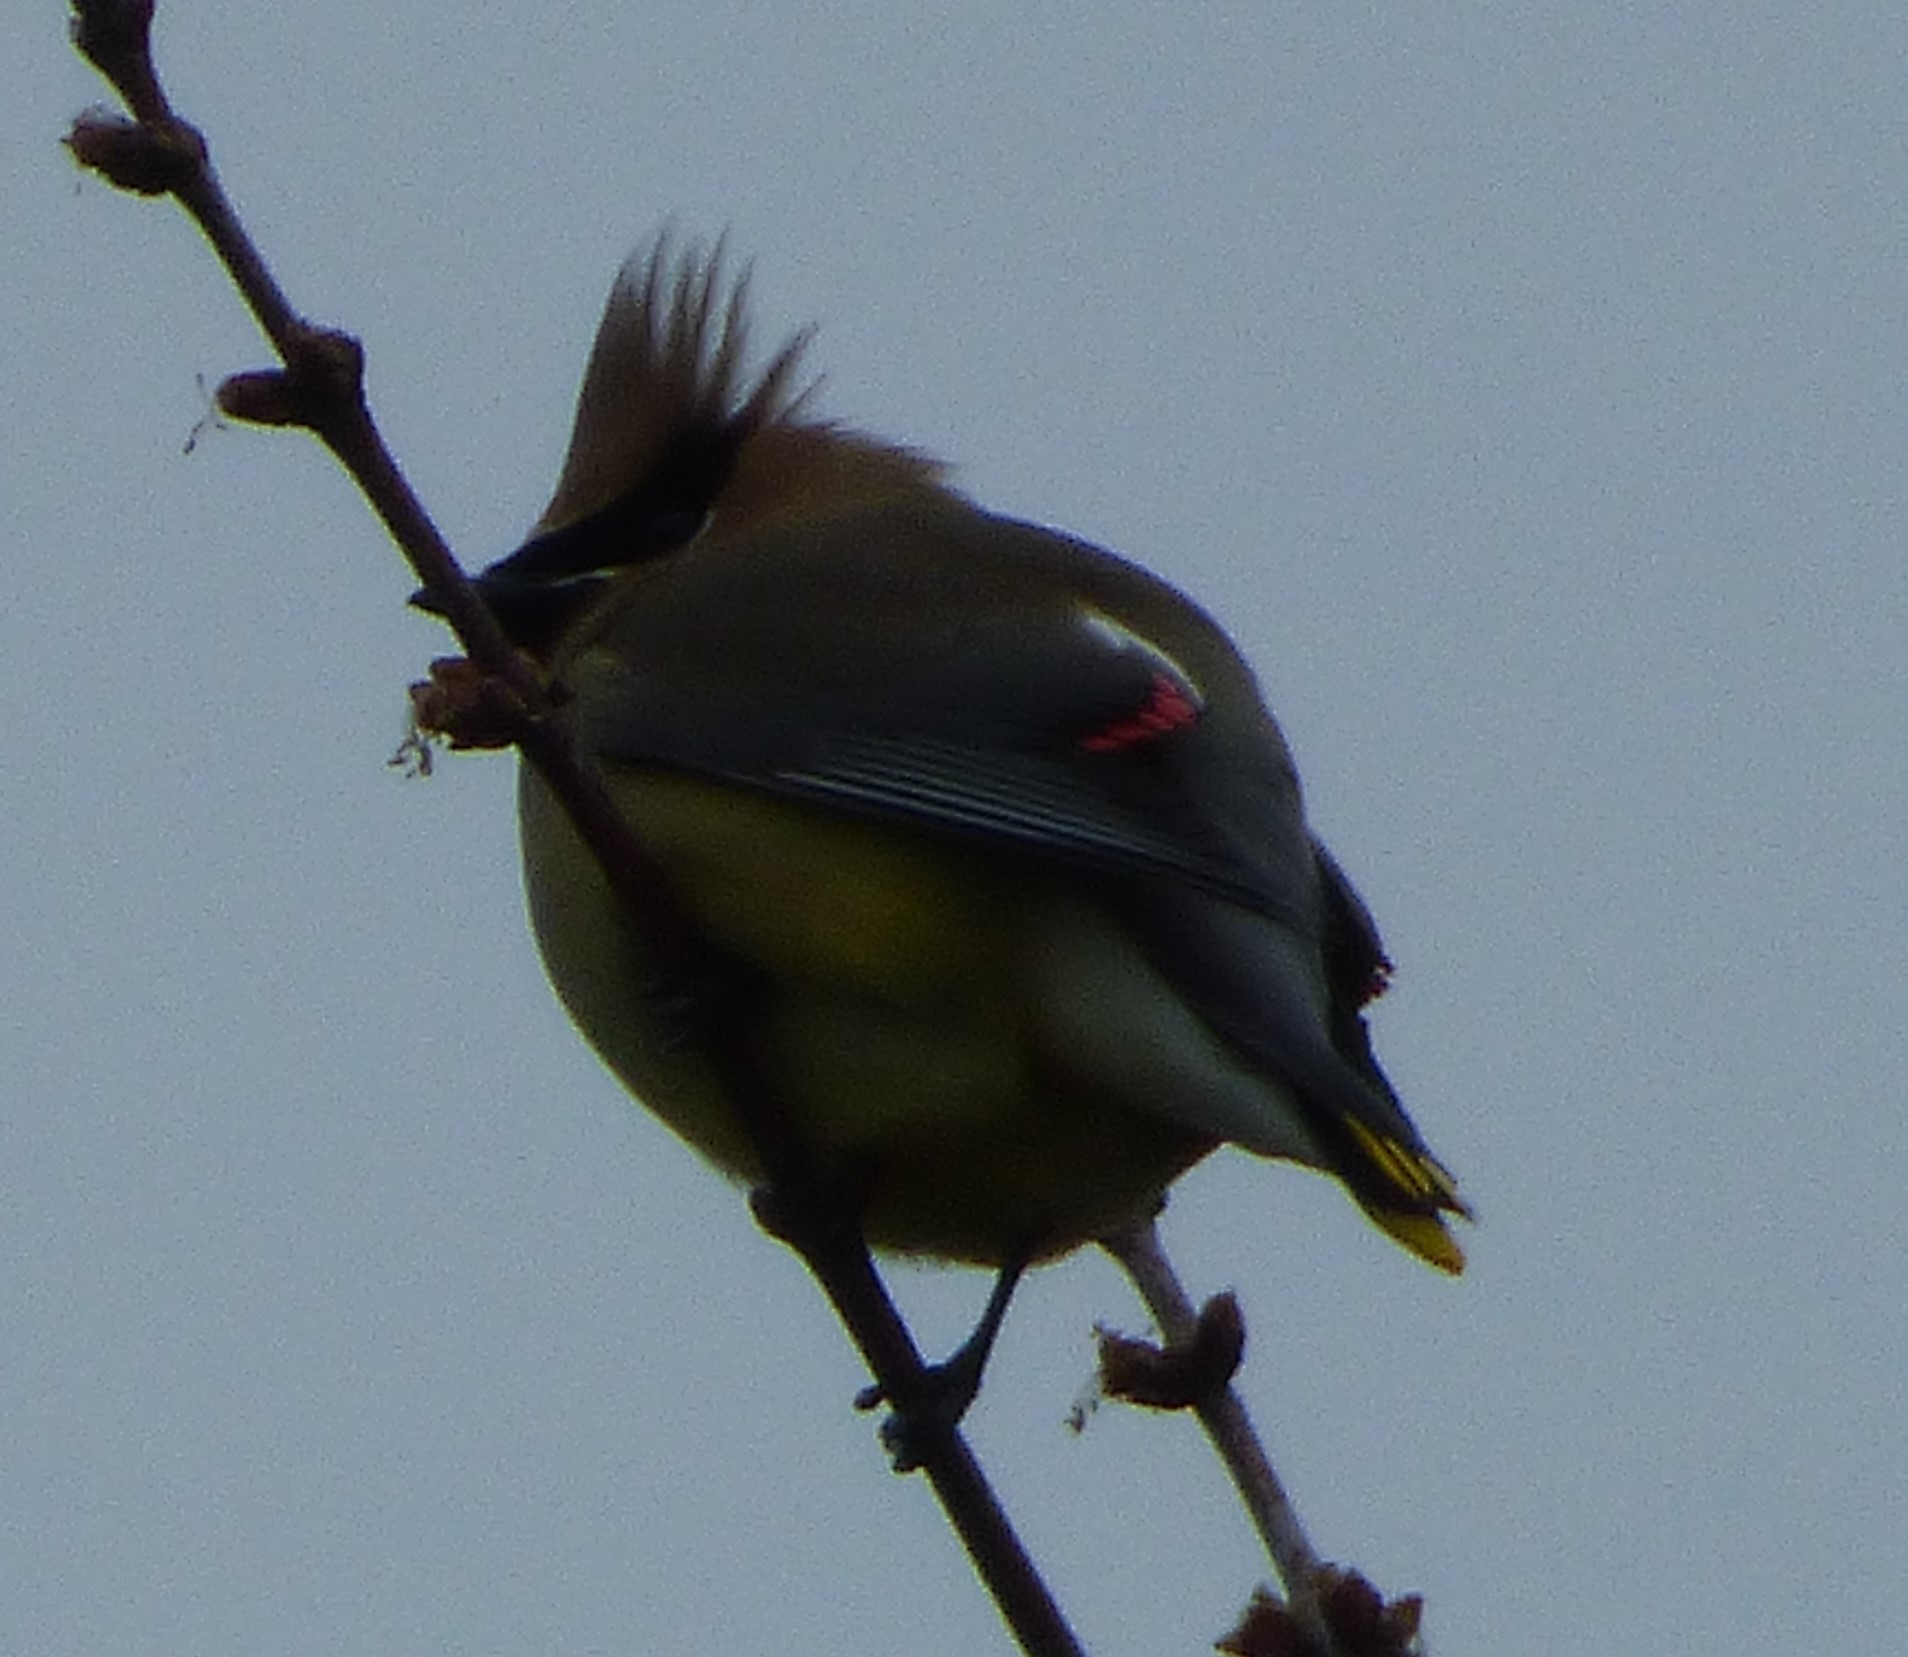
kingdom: Animalia
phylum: Chordata
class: Aves
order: Passeriformes
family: Bombycillidae
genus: Bombycilla
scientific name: Bombycilla cedrorum
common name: Cedar waxwing
